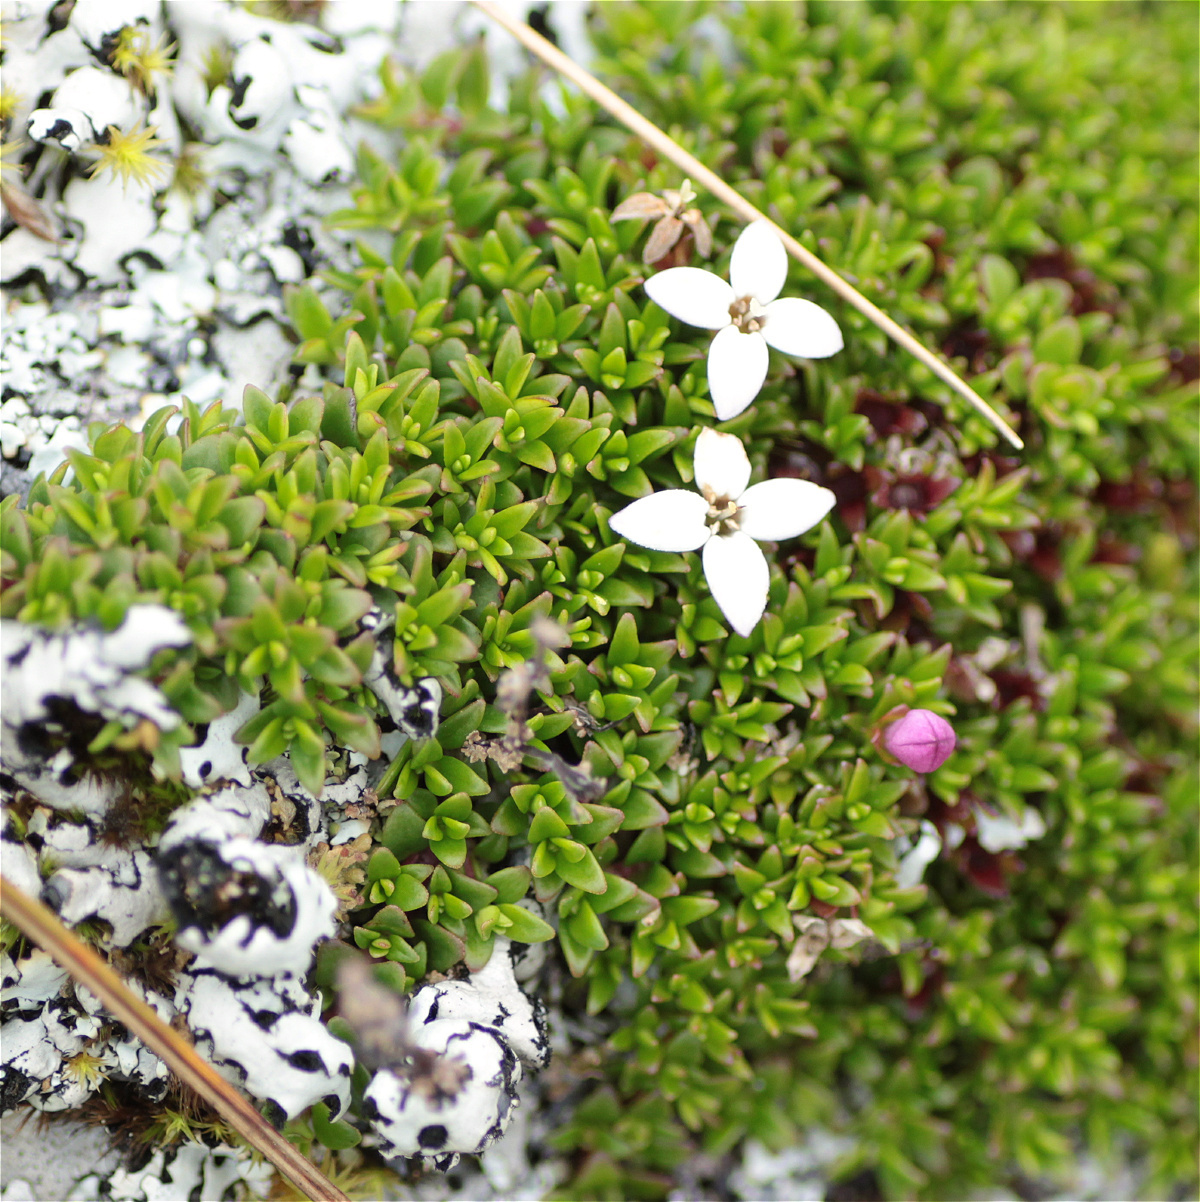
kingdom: Plantae
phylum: Tracheophyta
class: Magnoliopsida
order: Gentianales
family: Rubiaceae
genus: Arcytophyllum
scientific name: Arcytophyllum muticum
